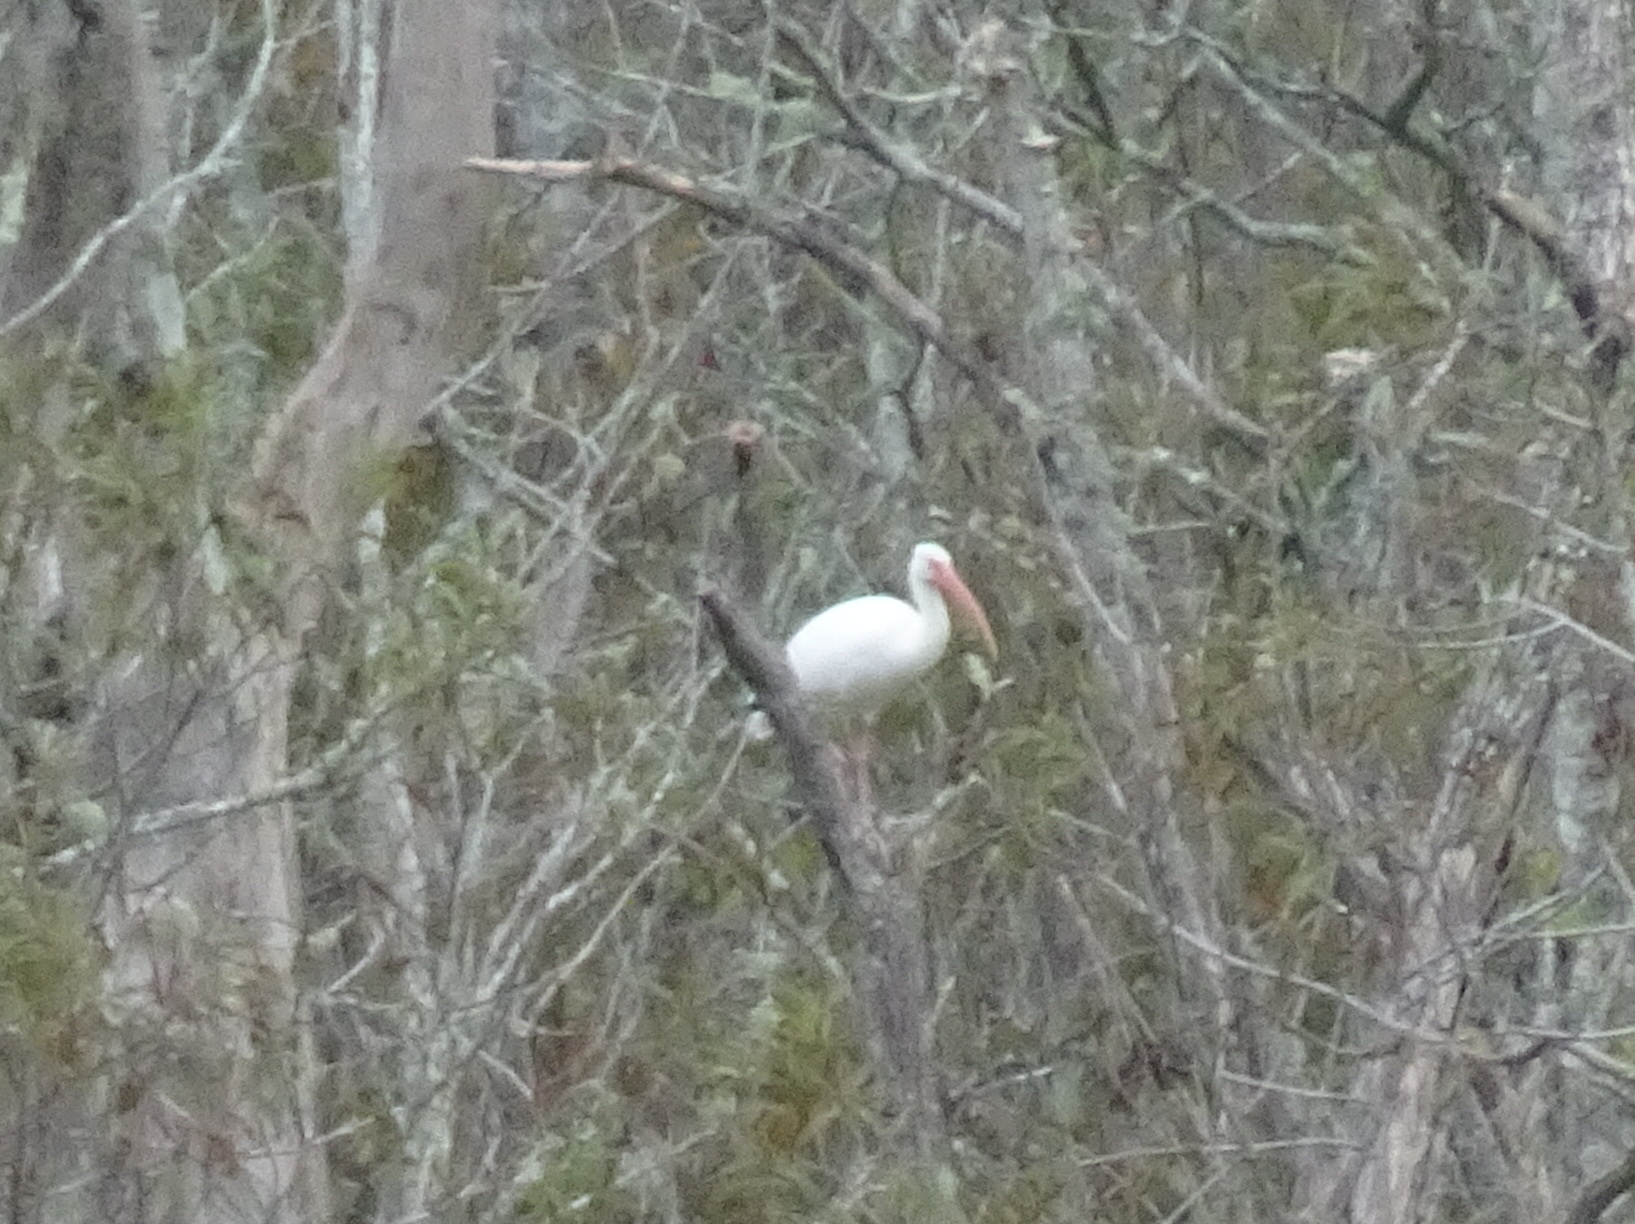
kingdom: Animalia
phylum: Chordata
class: Aves
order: Pelecaniformes
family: Threskiornithidae
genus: Eudocimus
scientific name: Eudocimus albus
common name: White ibis
